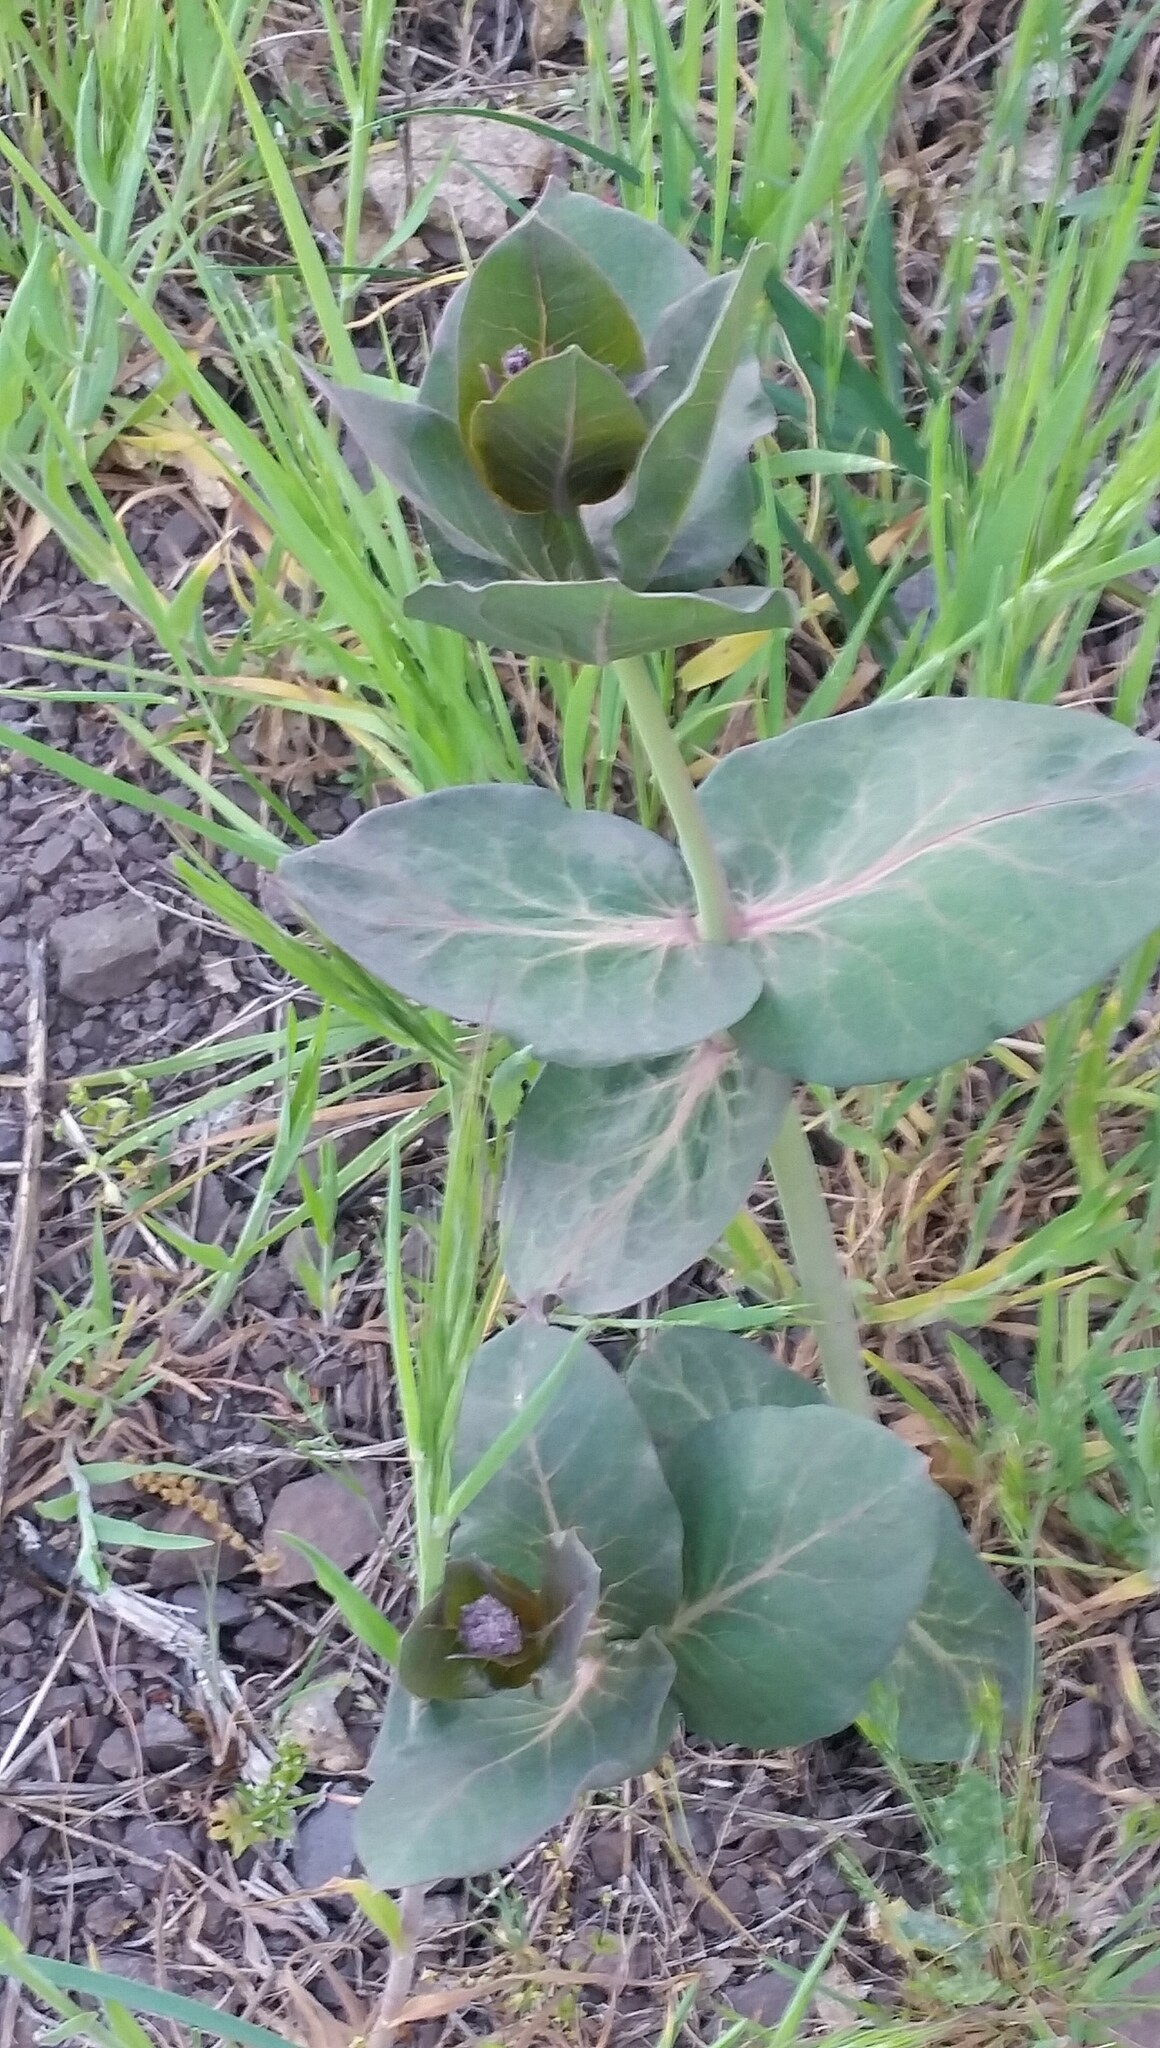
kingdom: Plantae
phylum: Tracheophyta
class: Magnoliopsida
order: Gentianales
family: Apocynaceae
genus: Asclepias
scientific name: Asclepias cordifolia
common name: Purple milkweed
